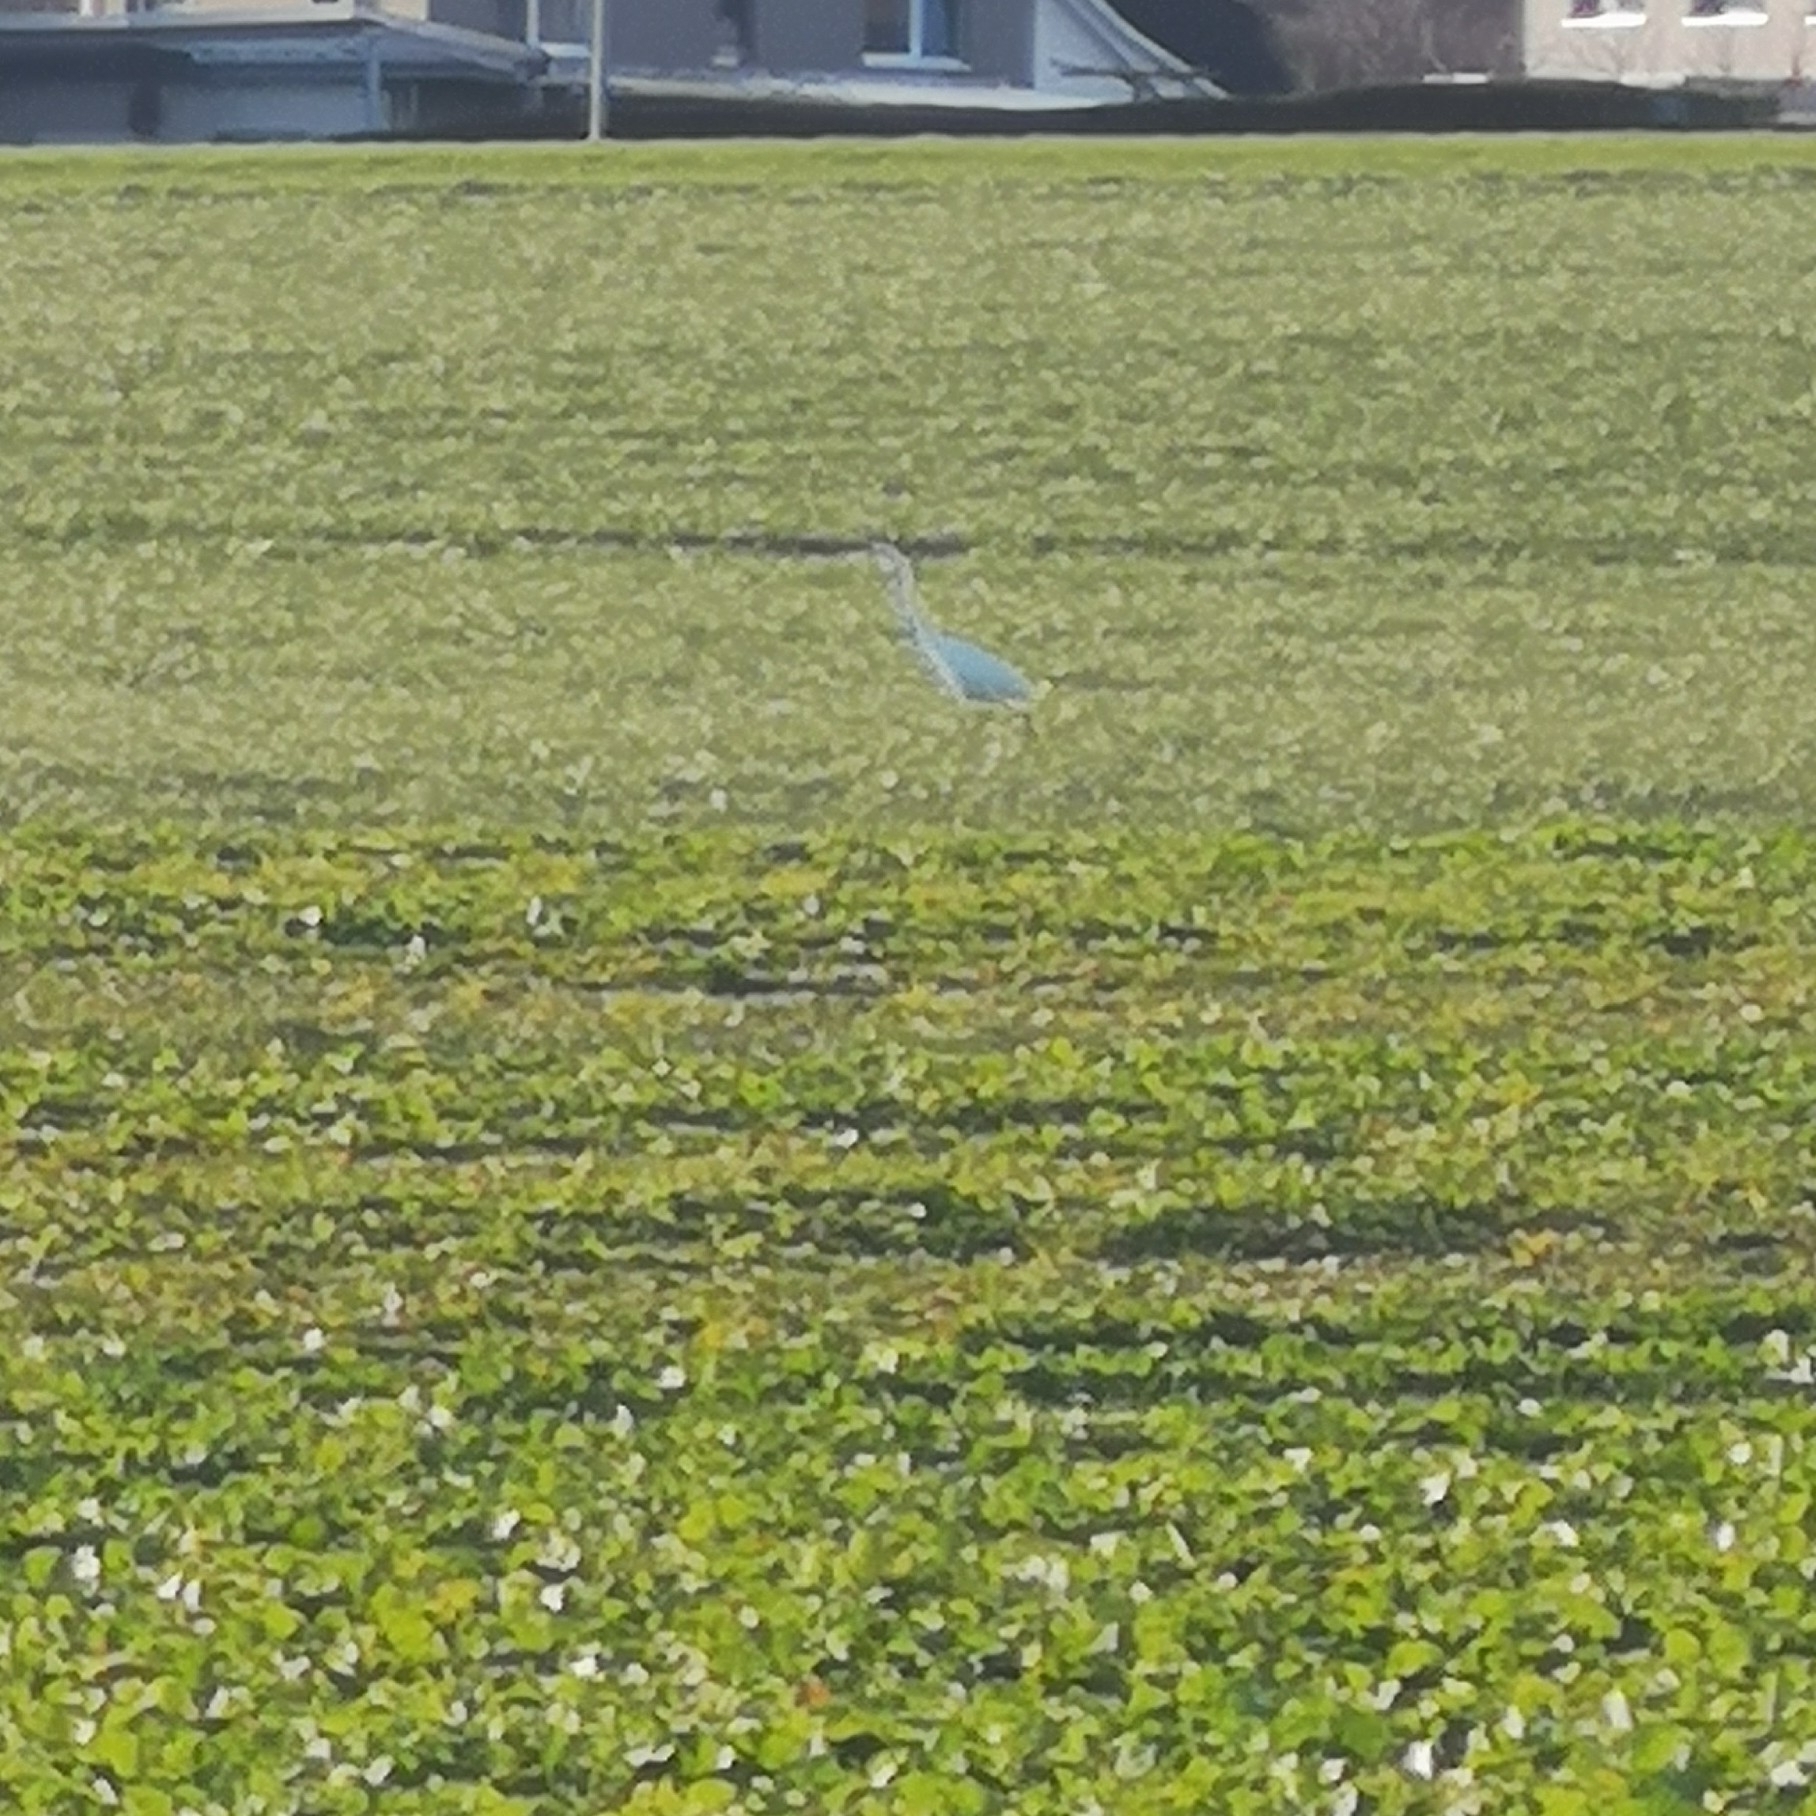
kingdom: Animalia
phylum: Chordata
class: Aves
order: Pelecaniformes
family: Ardeidae
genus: Ardea
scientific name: Ardea cinerea
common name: Grey heron
